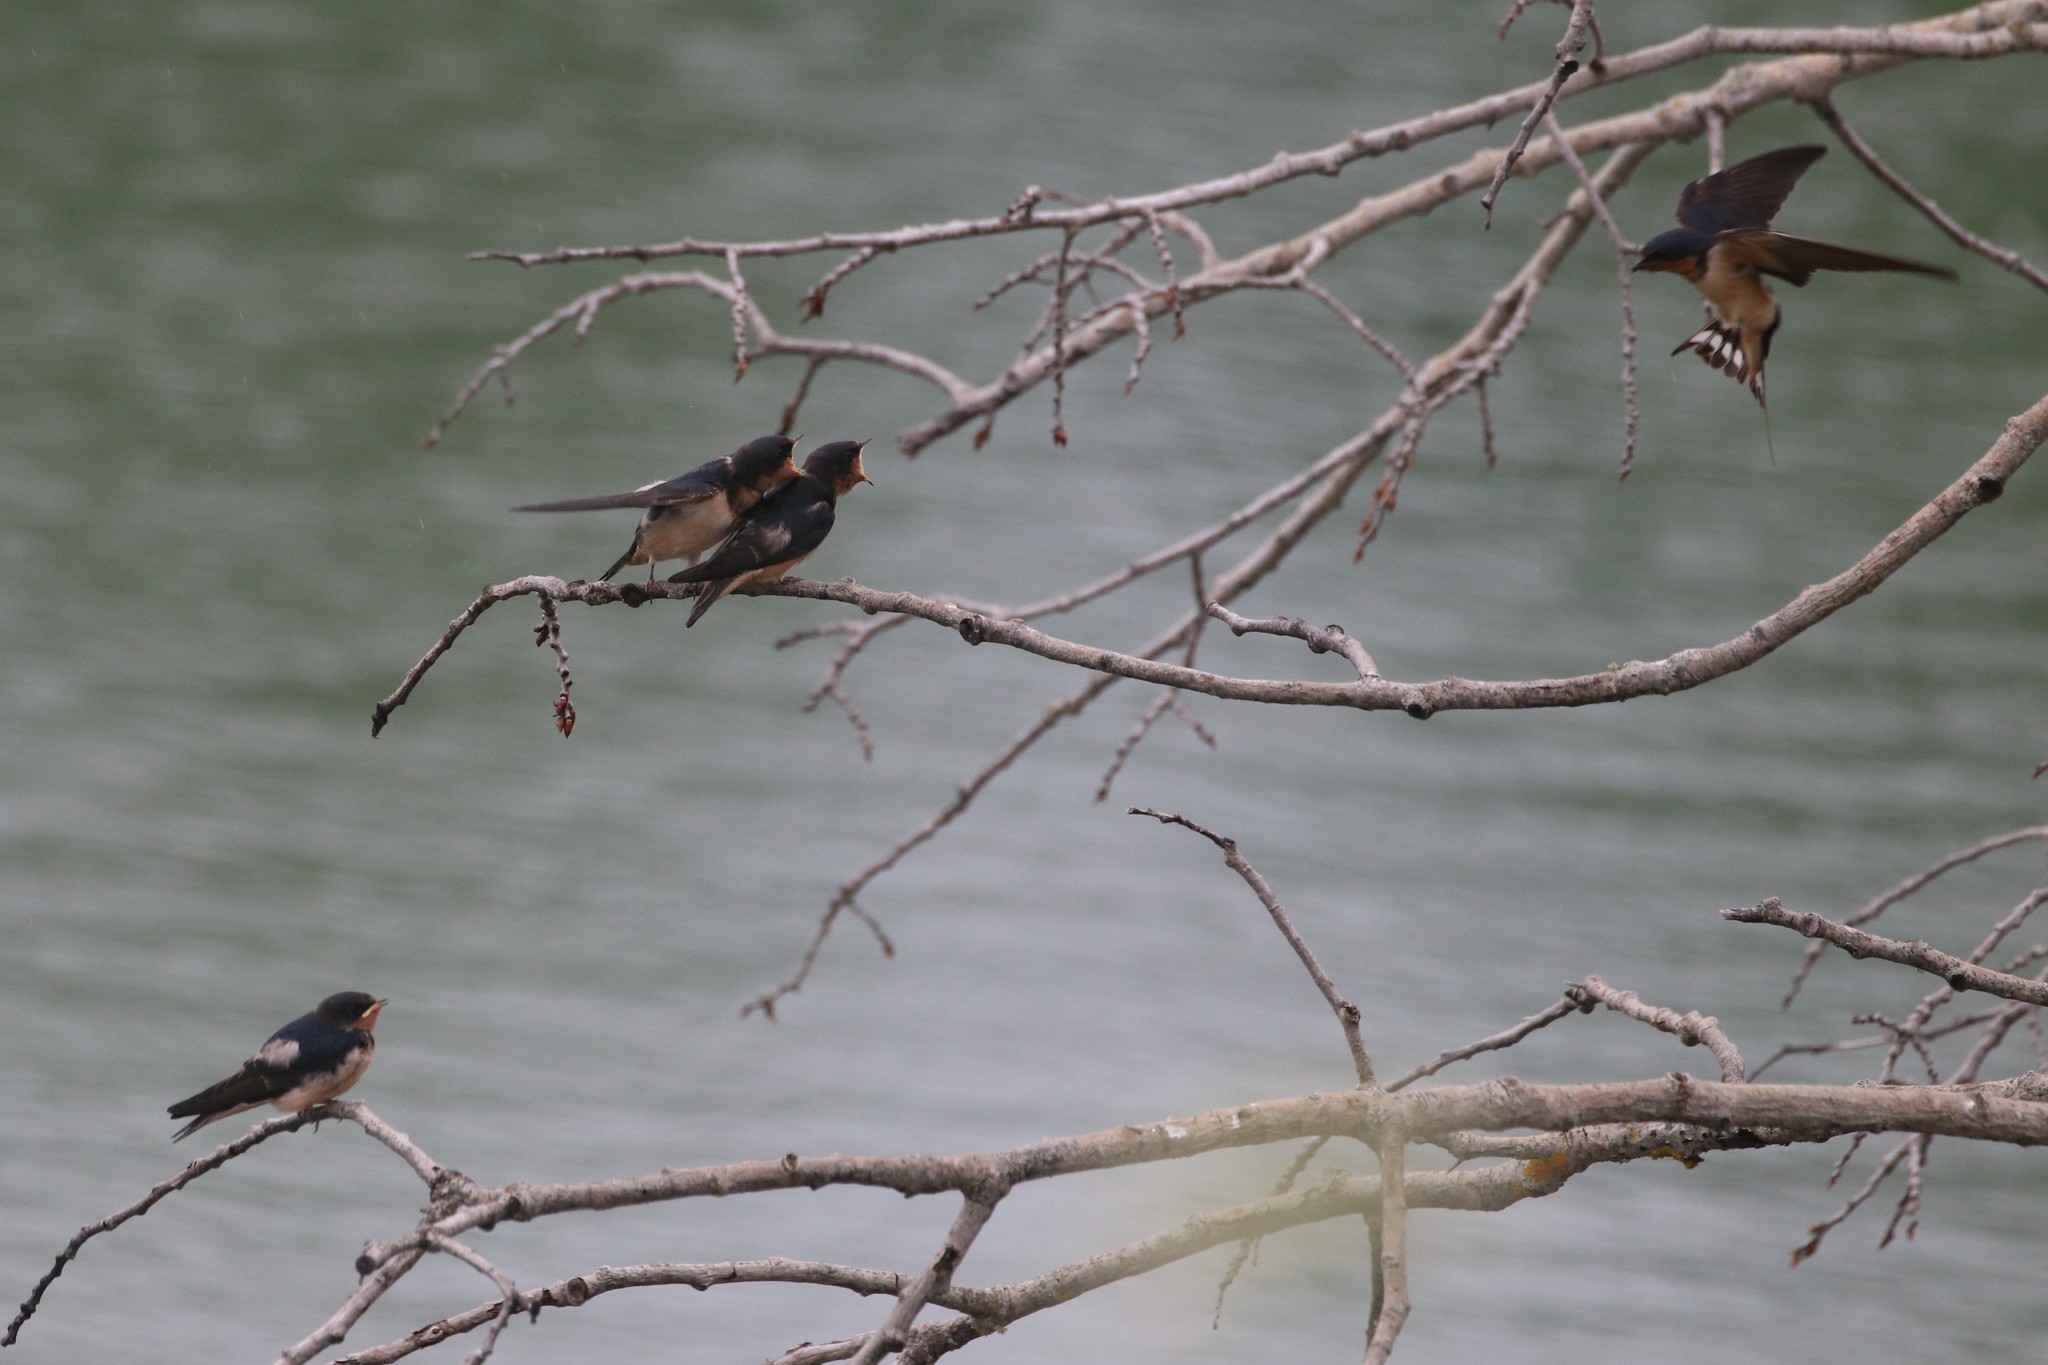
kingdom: Animalia
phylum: Chordata
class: Aves
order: Passeriformes
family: Hirundinidae
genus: Hirundo
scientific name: Hirundo rustica
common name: Barn swallow
